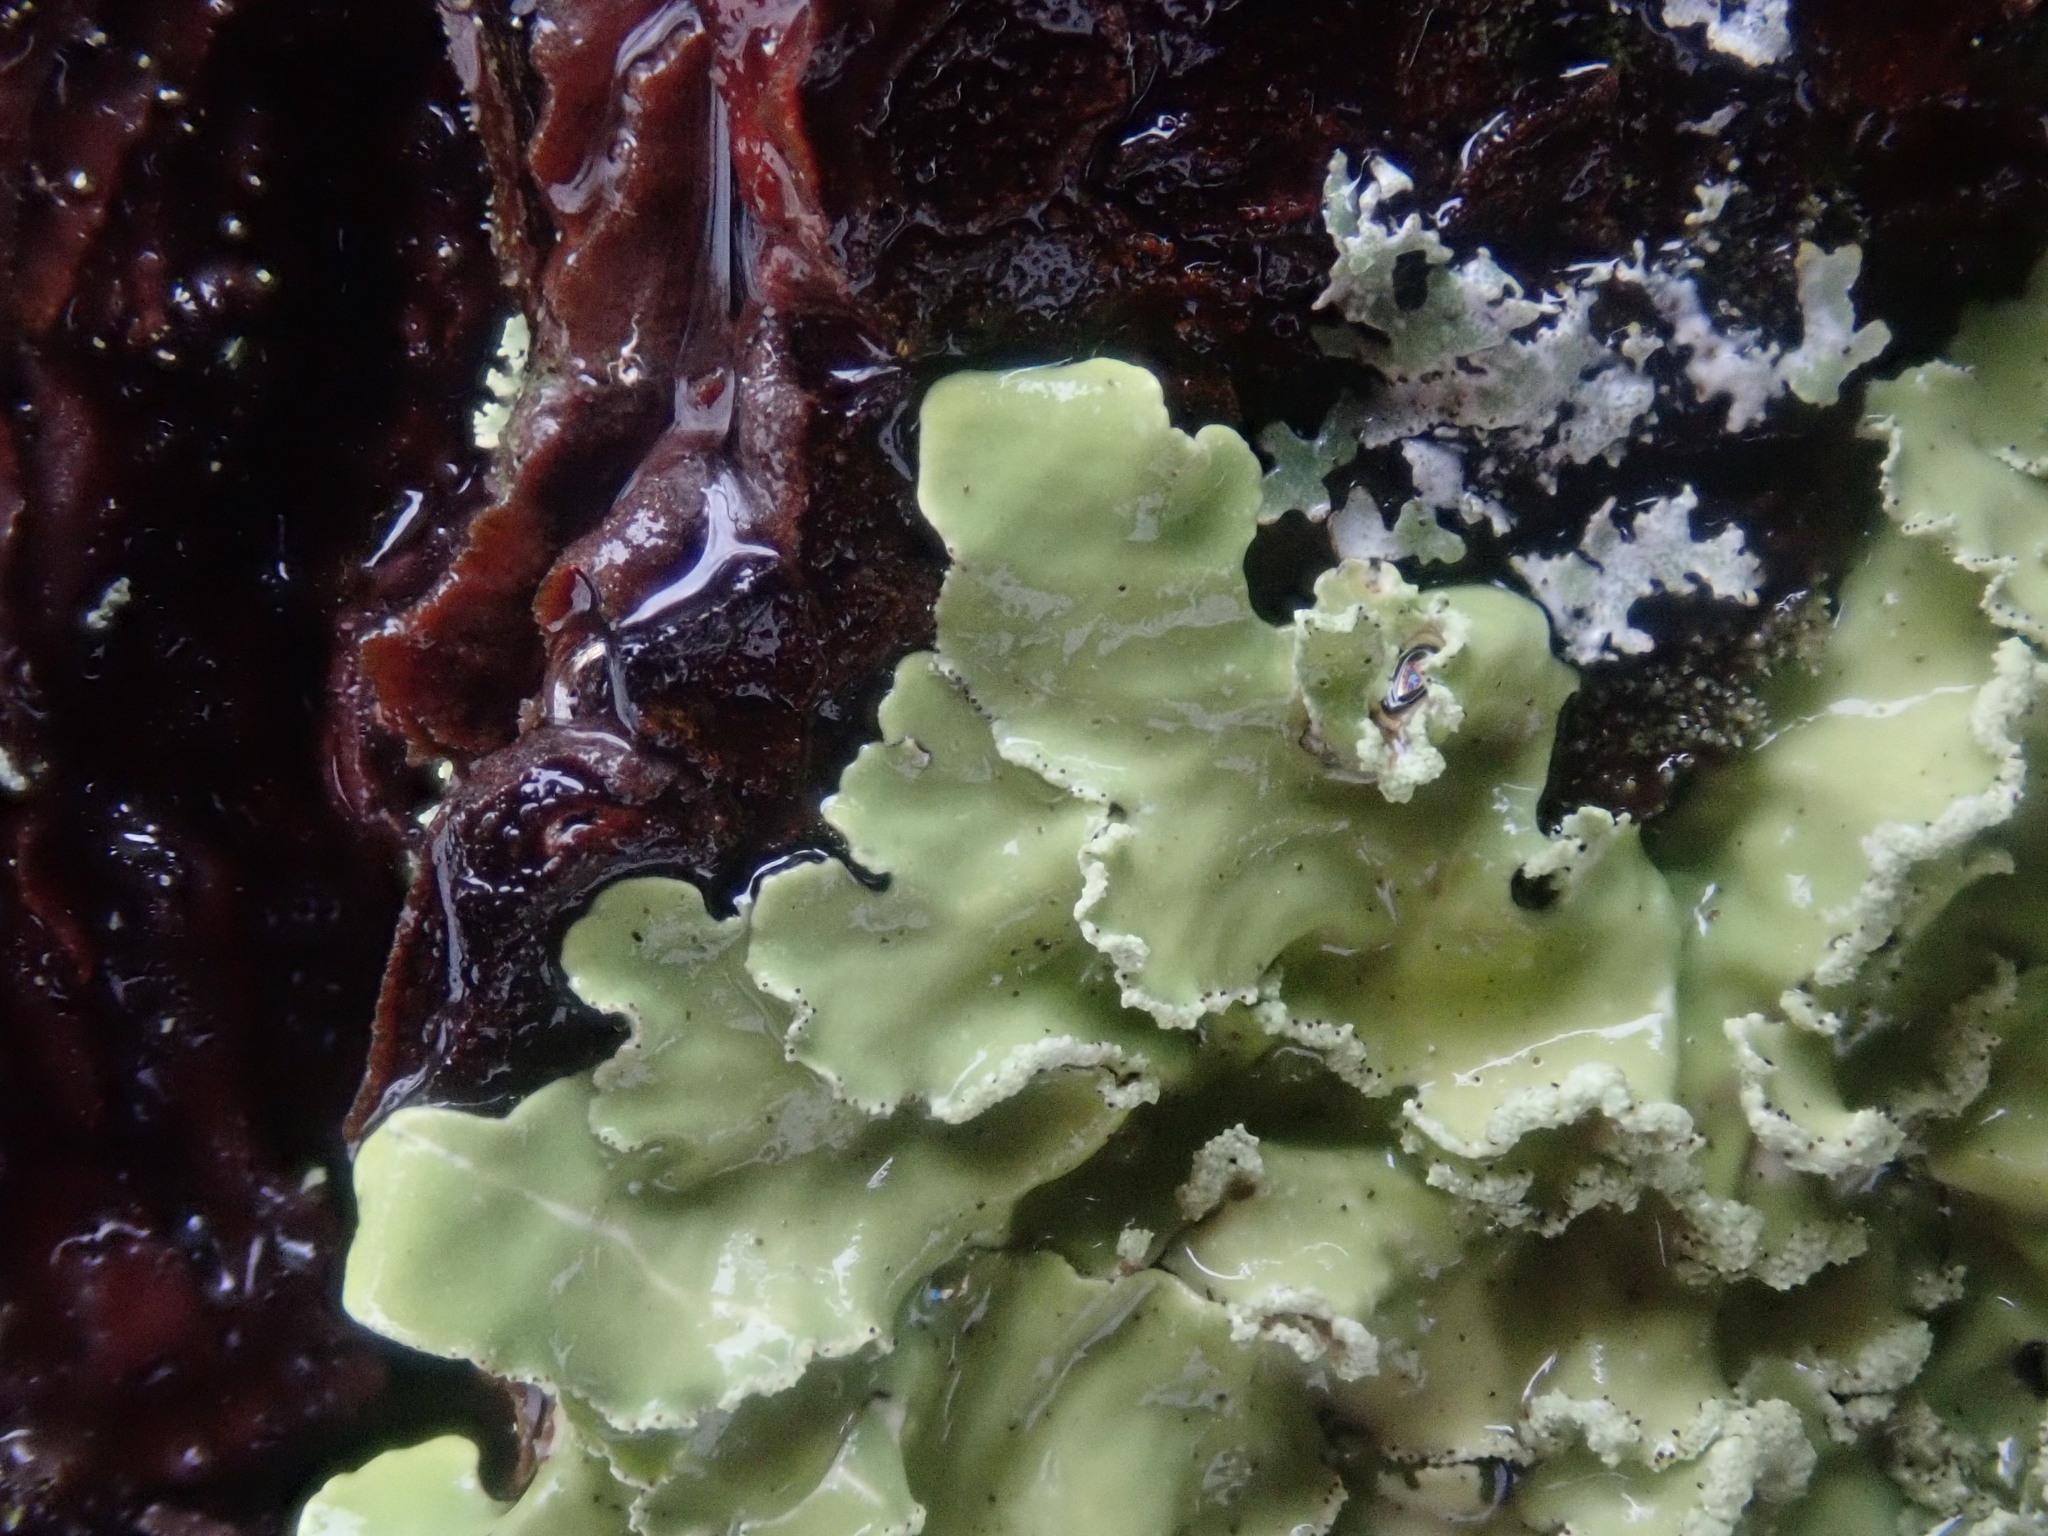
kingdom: Fungi
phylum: Ascomycota
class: Lecanoromycetes
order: Lecanorales
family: Parmeliaceae
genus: Usnocetraria
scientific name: Usnocetraria oakesiana
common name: Yellow ribbon lichen
